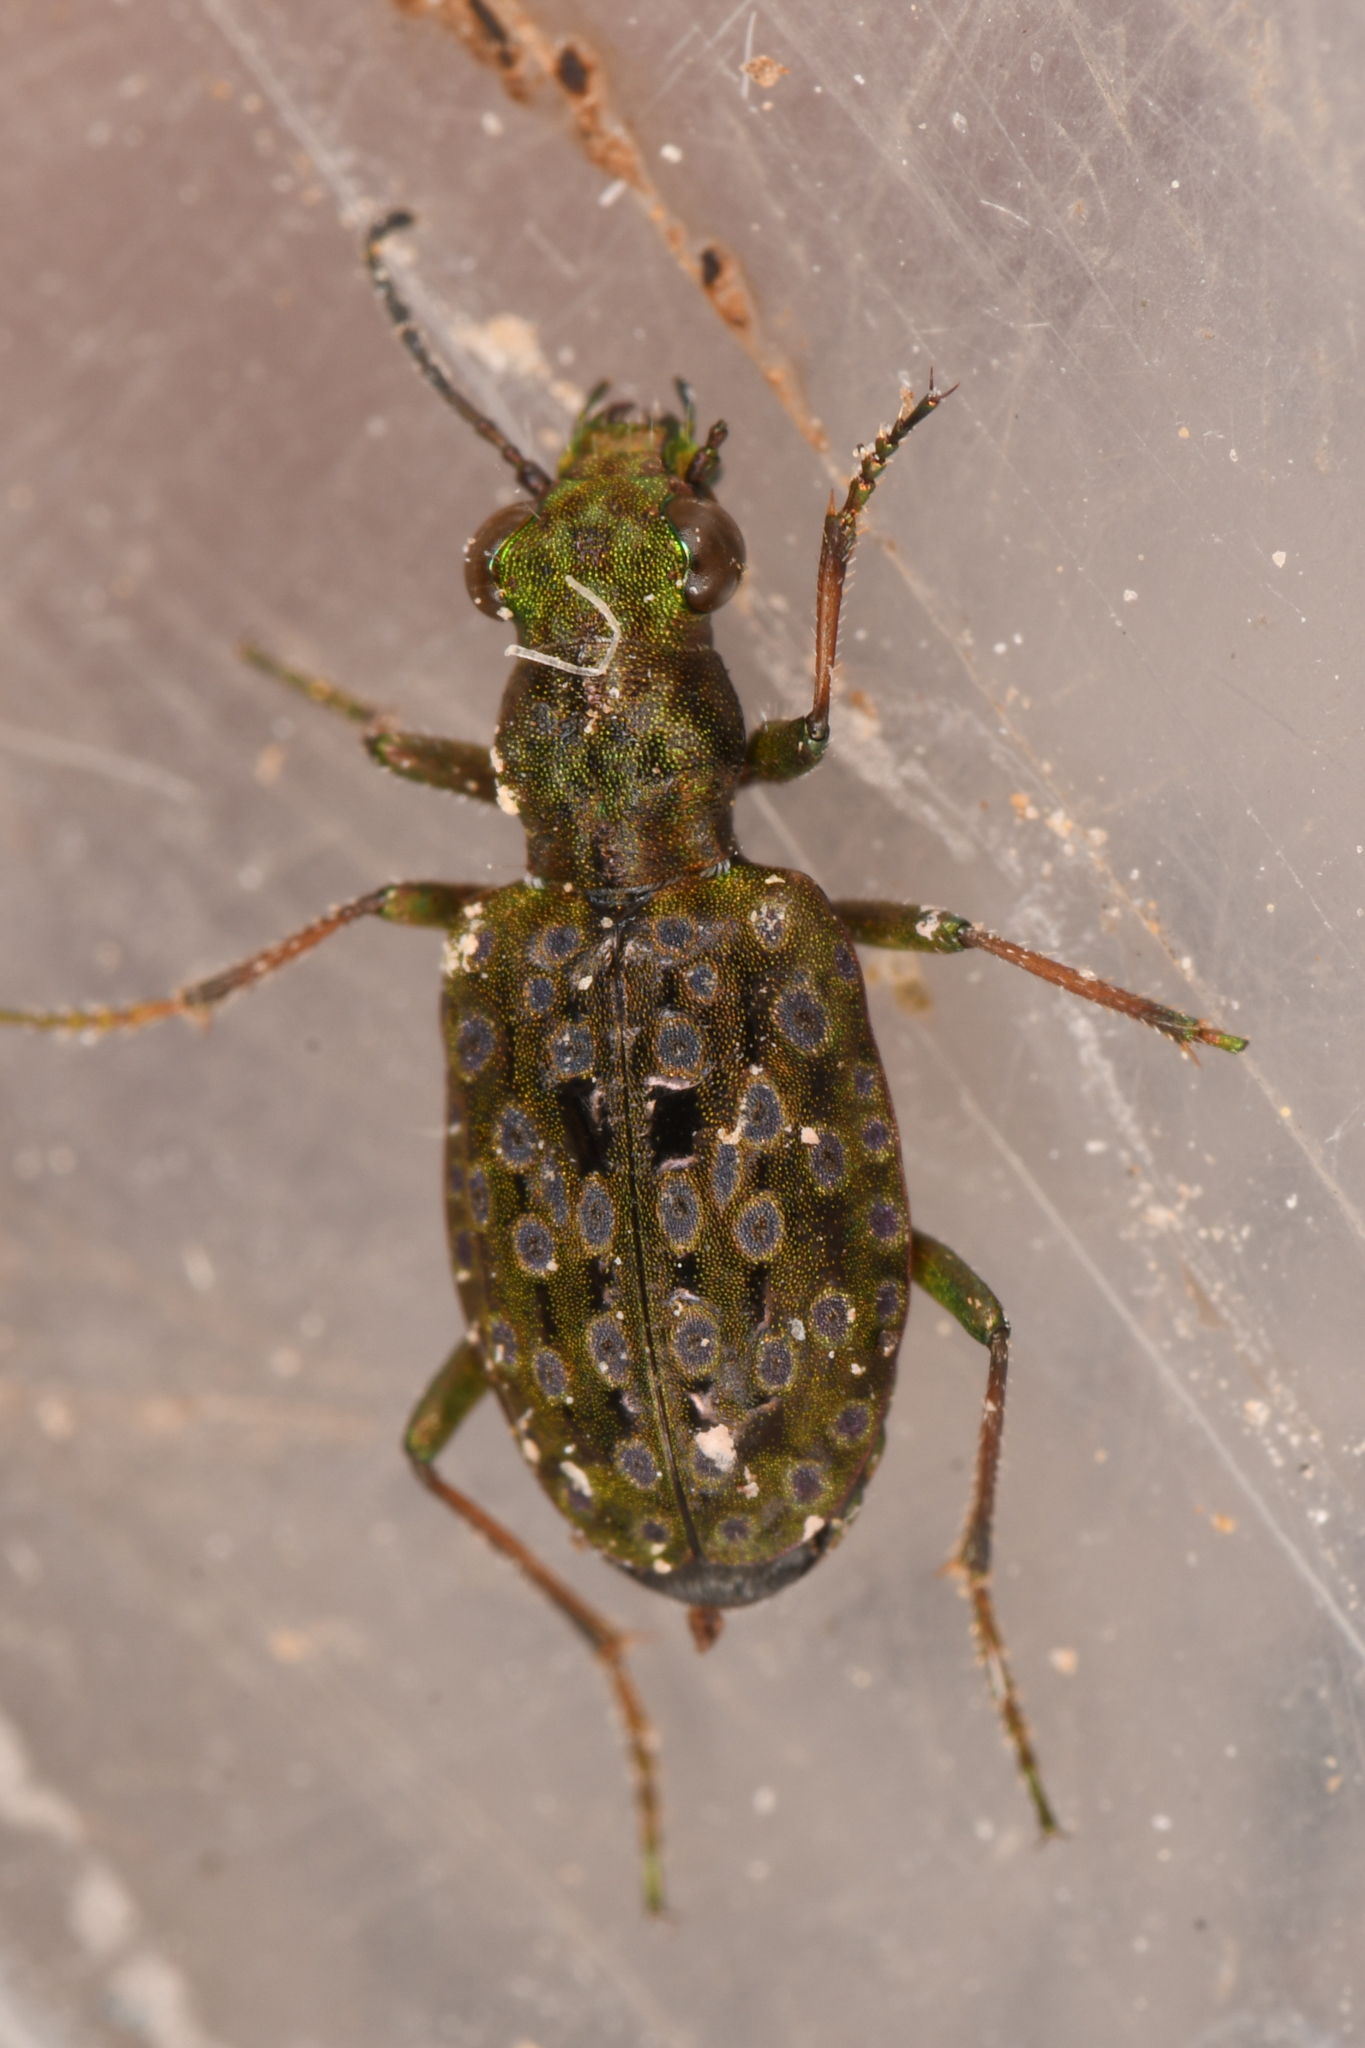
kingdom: Animalia
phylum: Arthropoda
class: Insecta
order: Coleoptera
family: Carabidae
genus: Elaphrus
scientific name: Elaphrus americanus
